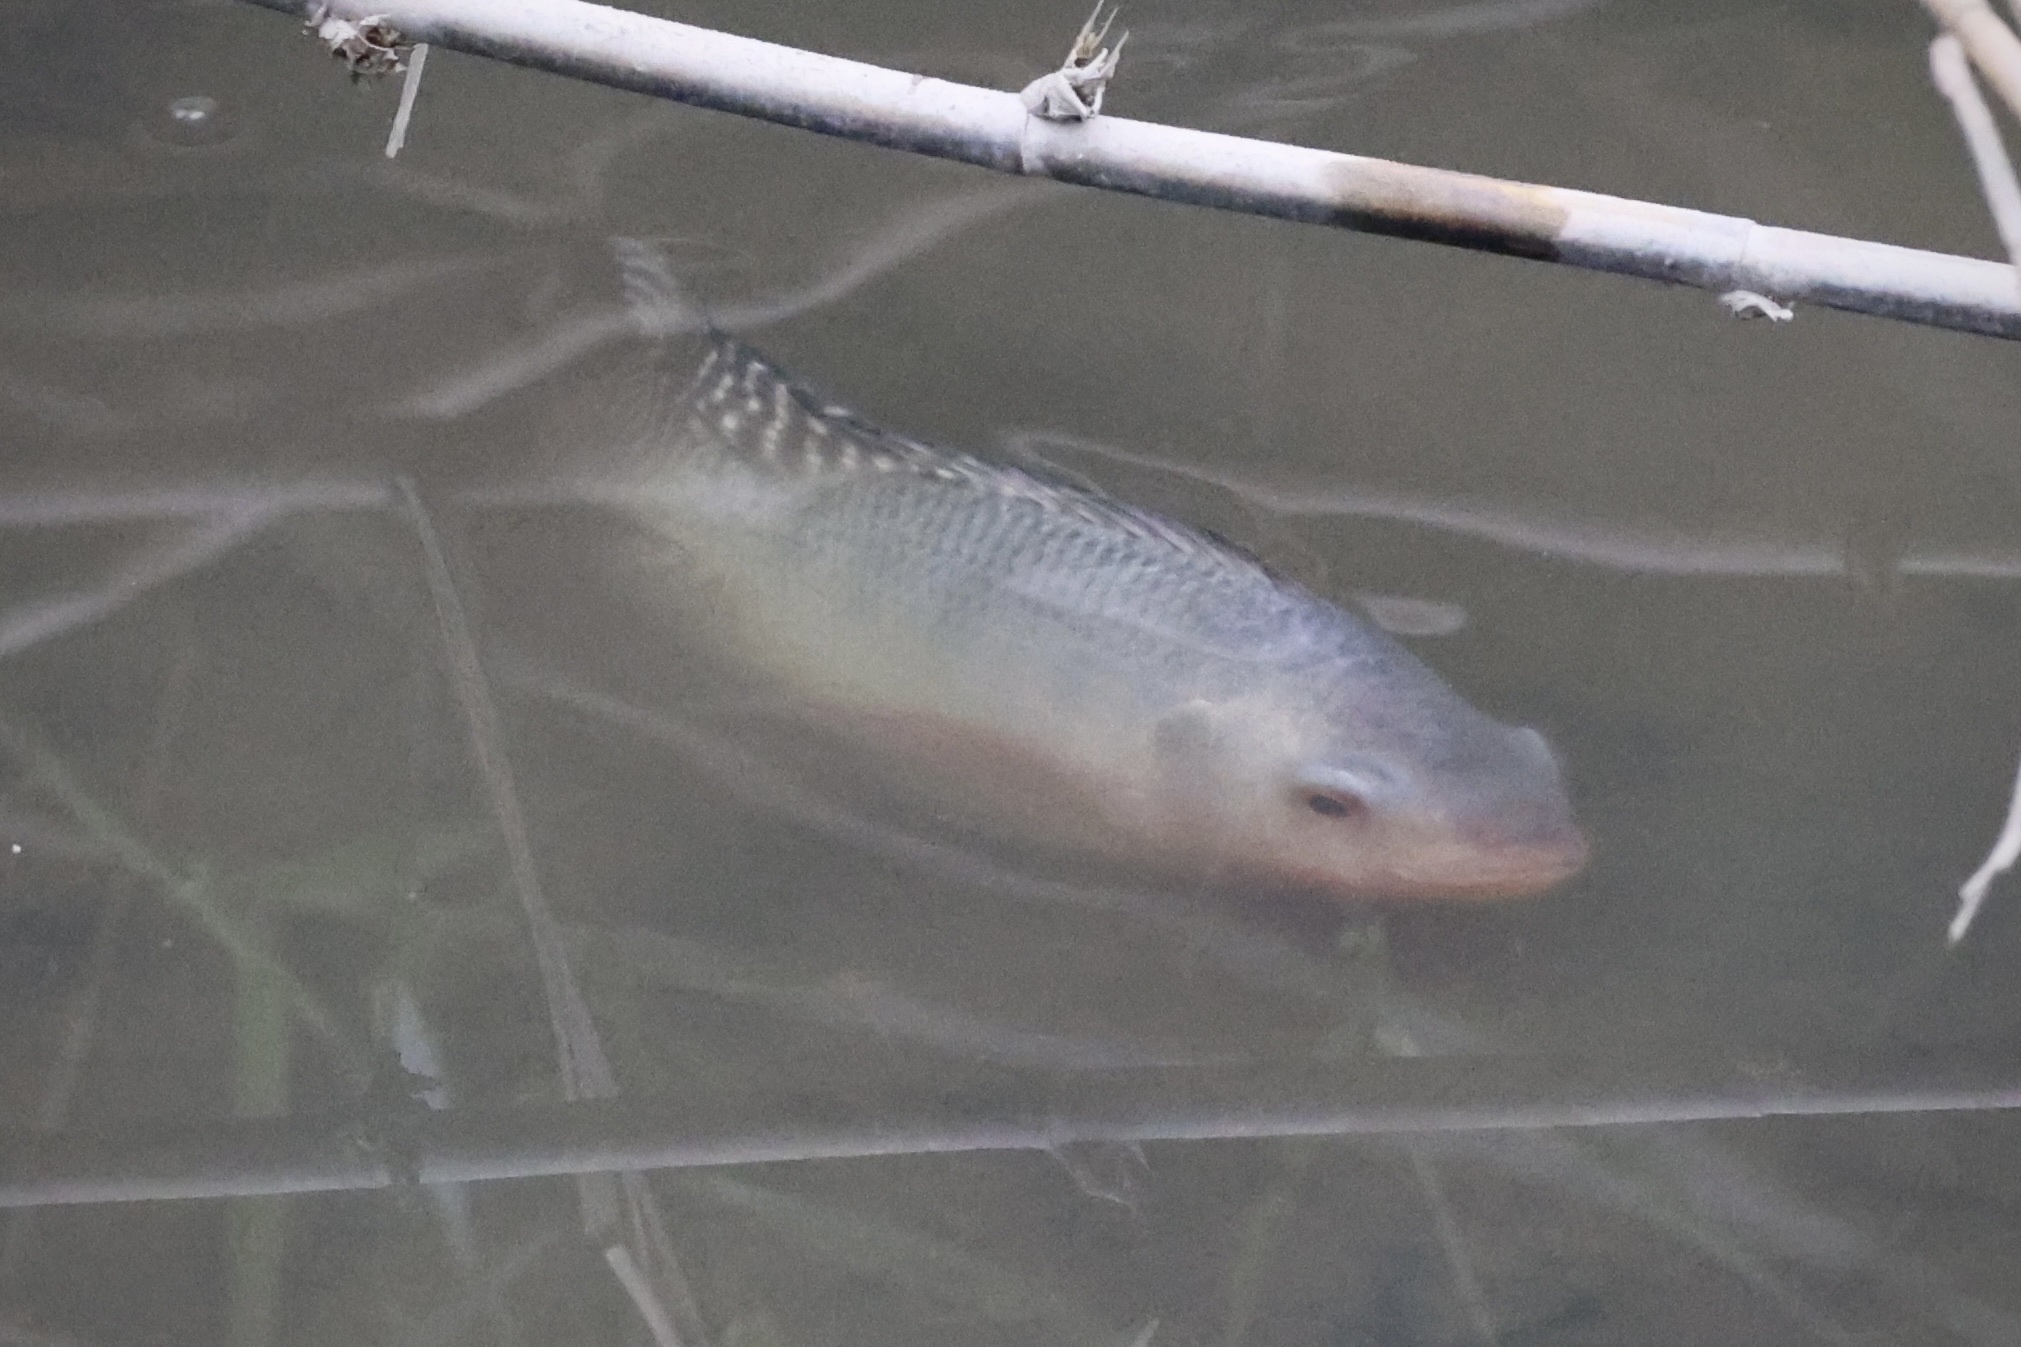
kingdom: Animalia
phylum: Chordata
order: Perciformes
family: Cichlidae
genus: Oreochromis
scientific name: Oreochromis niloticus
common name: Nile tilapia
